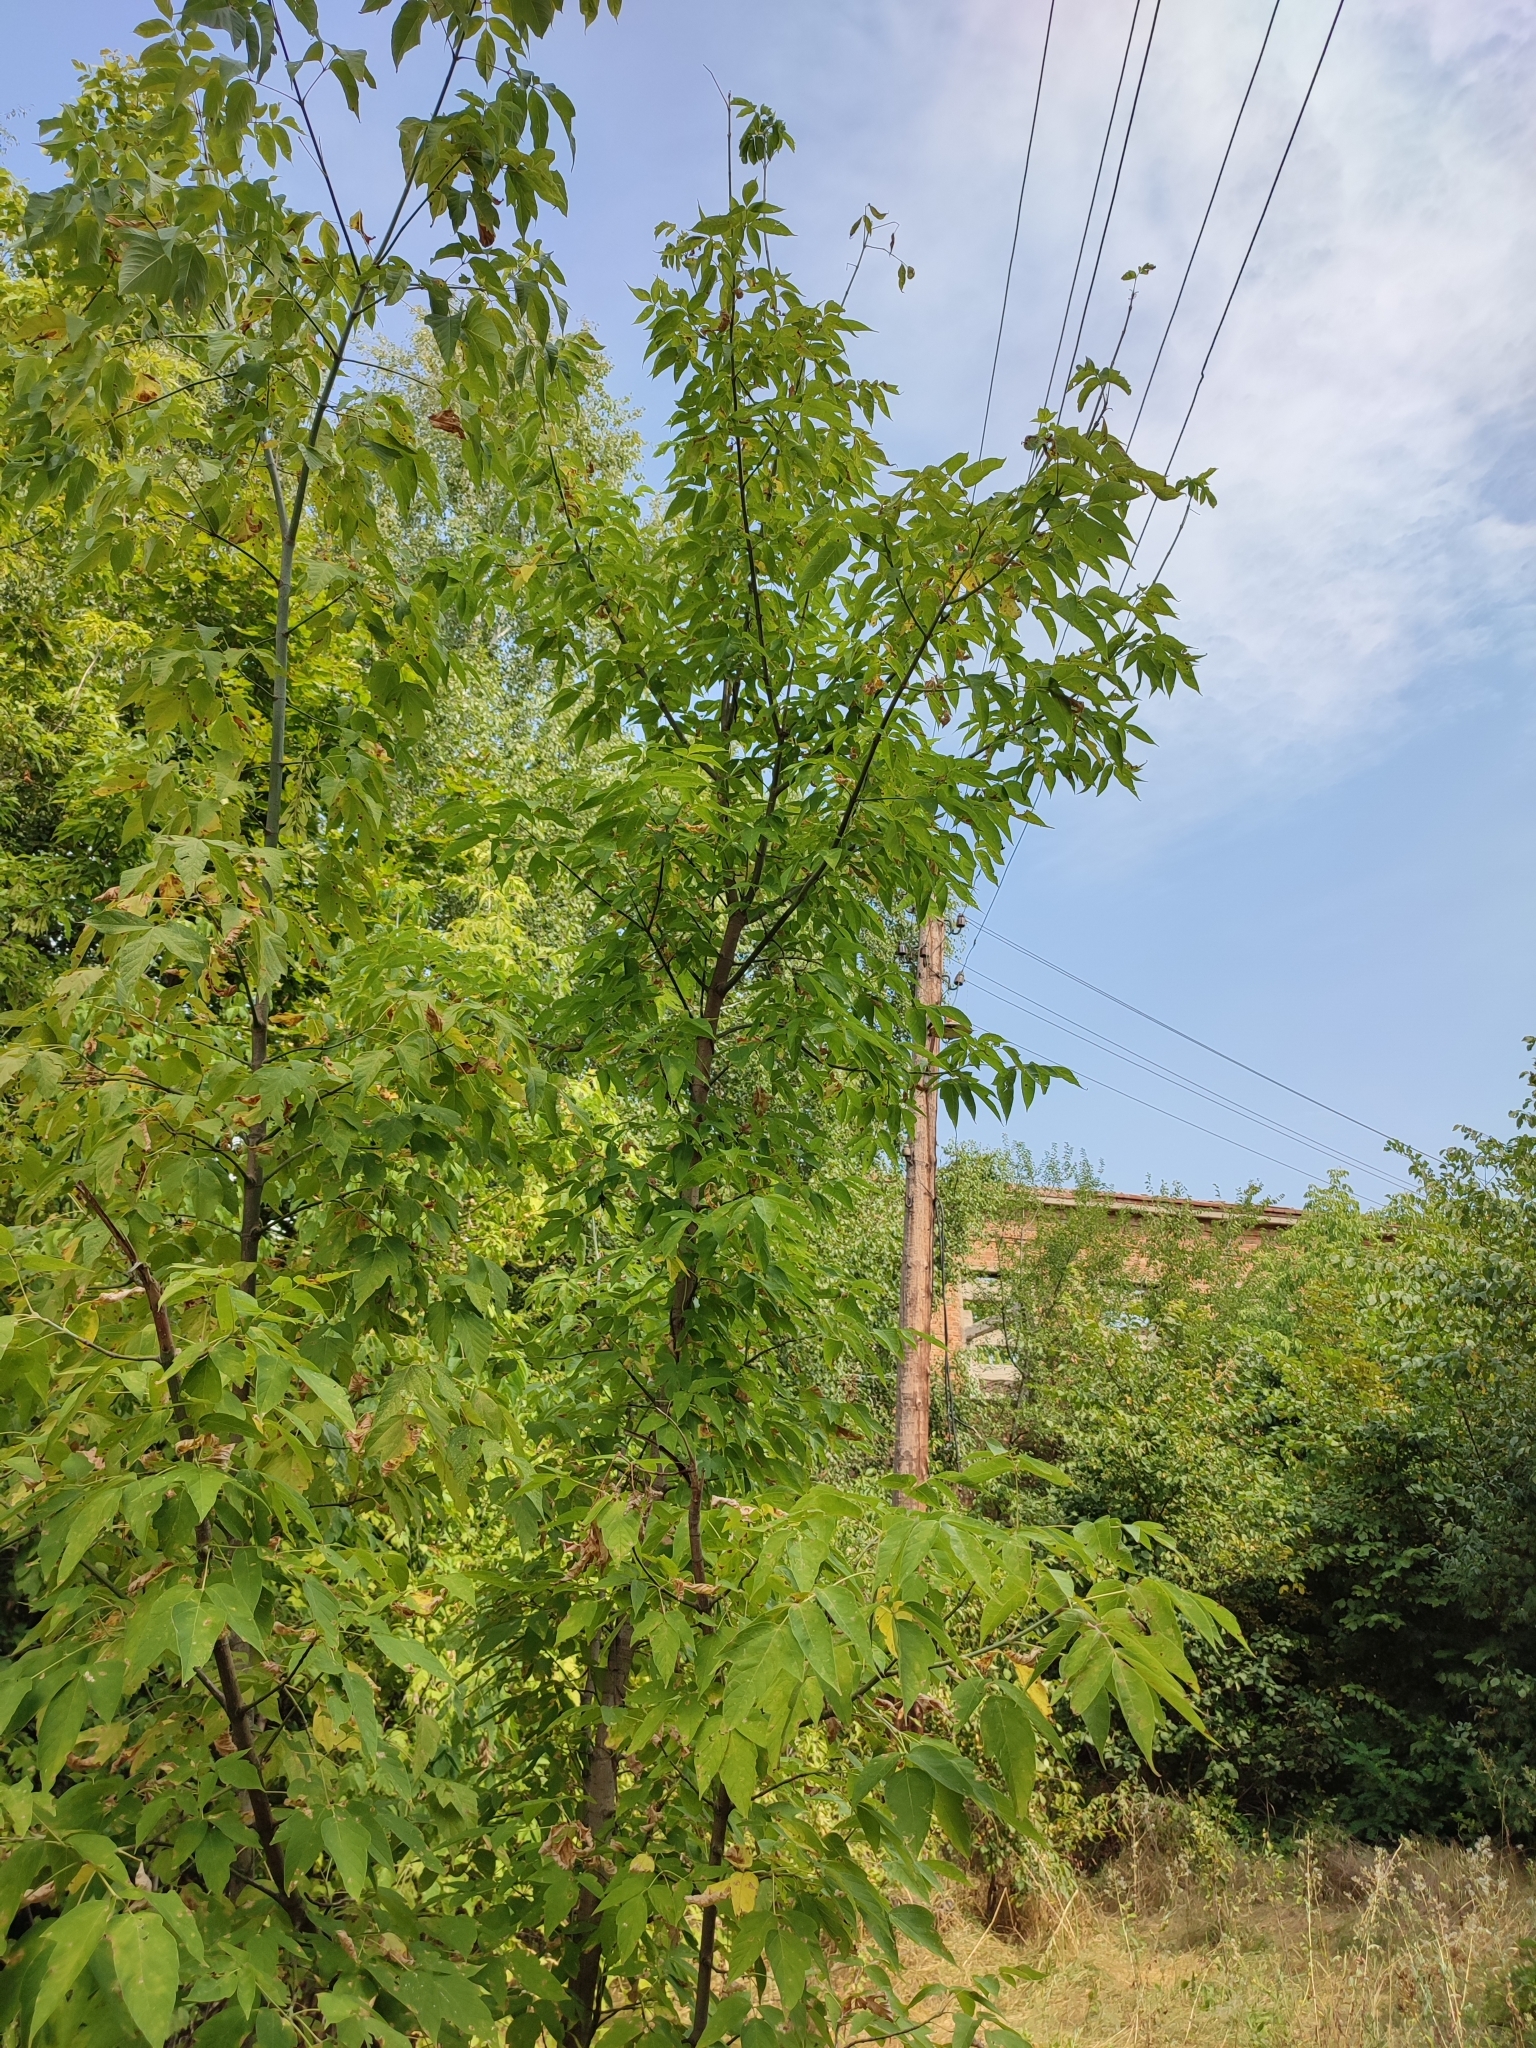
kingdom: Plantae
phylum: Tracheophyta
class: Magnoliopsida
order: Sapindales
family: Sapindaceae
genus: Acer
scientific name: Acer negundo
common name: Ashleaf maple
